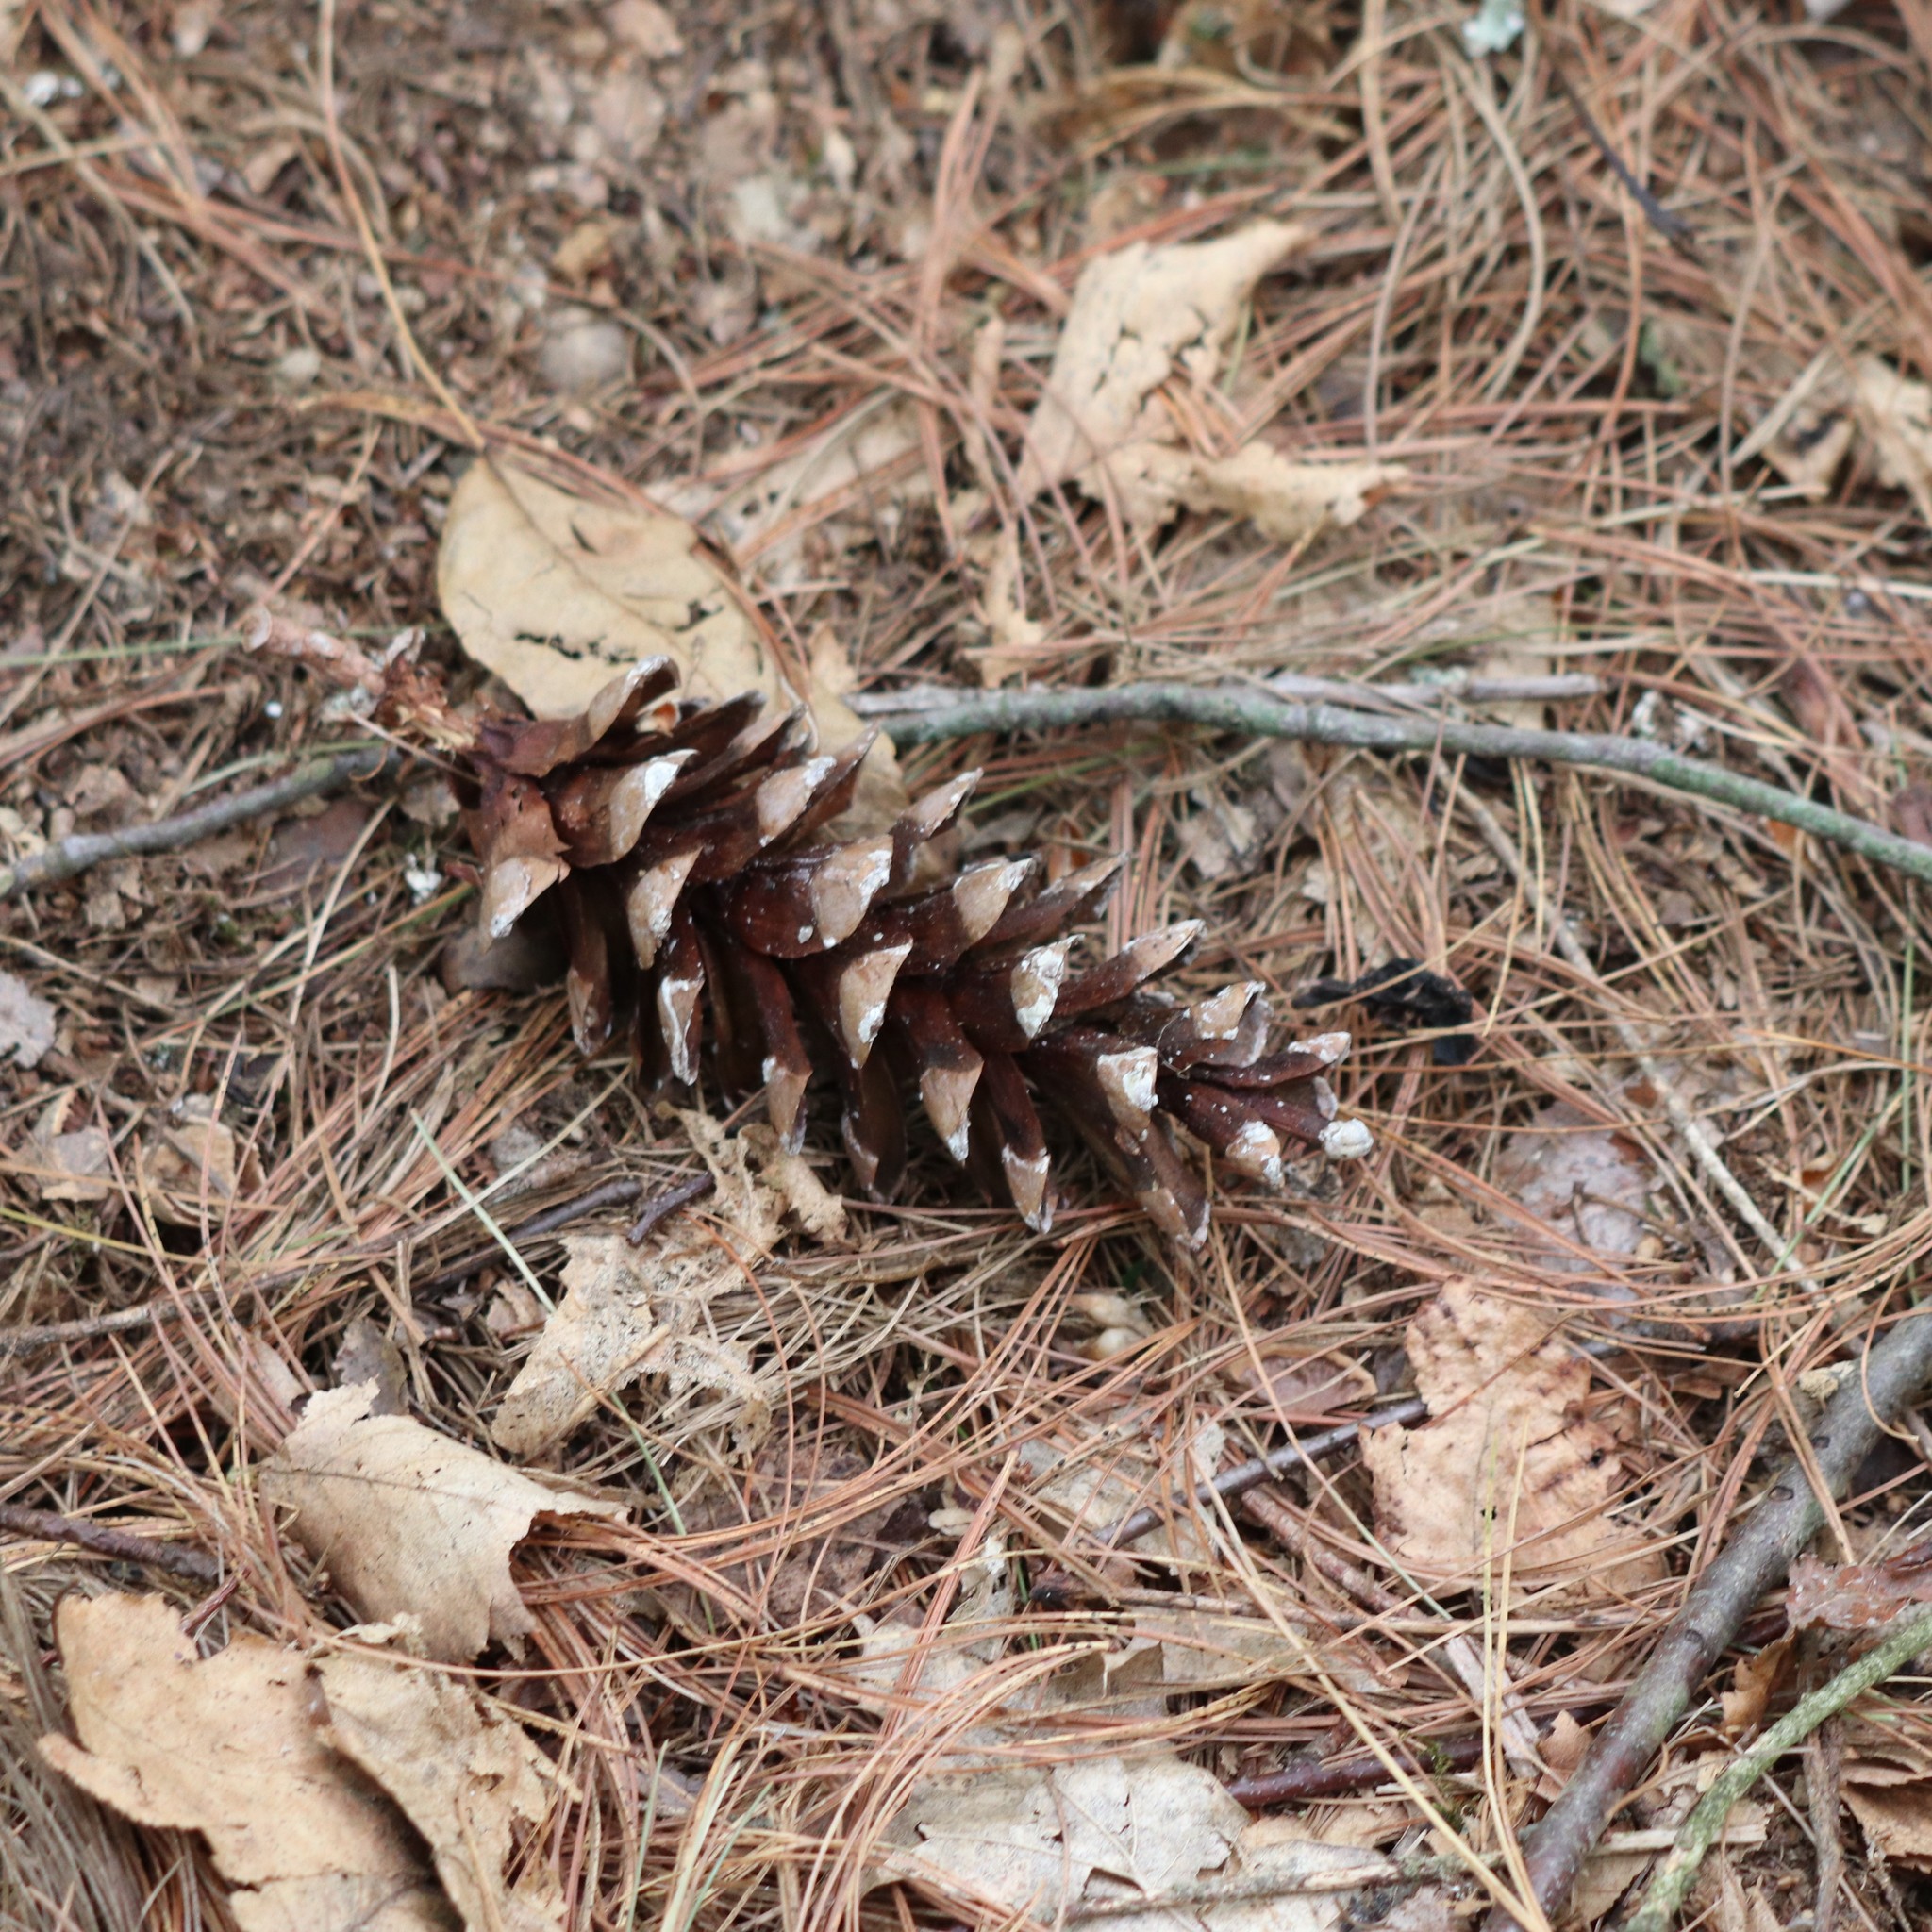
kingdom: Plantae
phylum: Tracheophyta
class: Pinopsida
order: Pinales
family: Pinaceae
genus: Pinus
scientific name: Pinus strobus
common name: Weymouth pine
